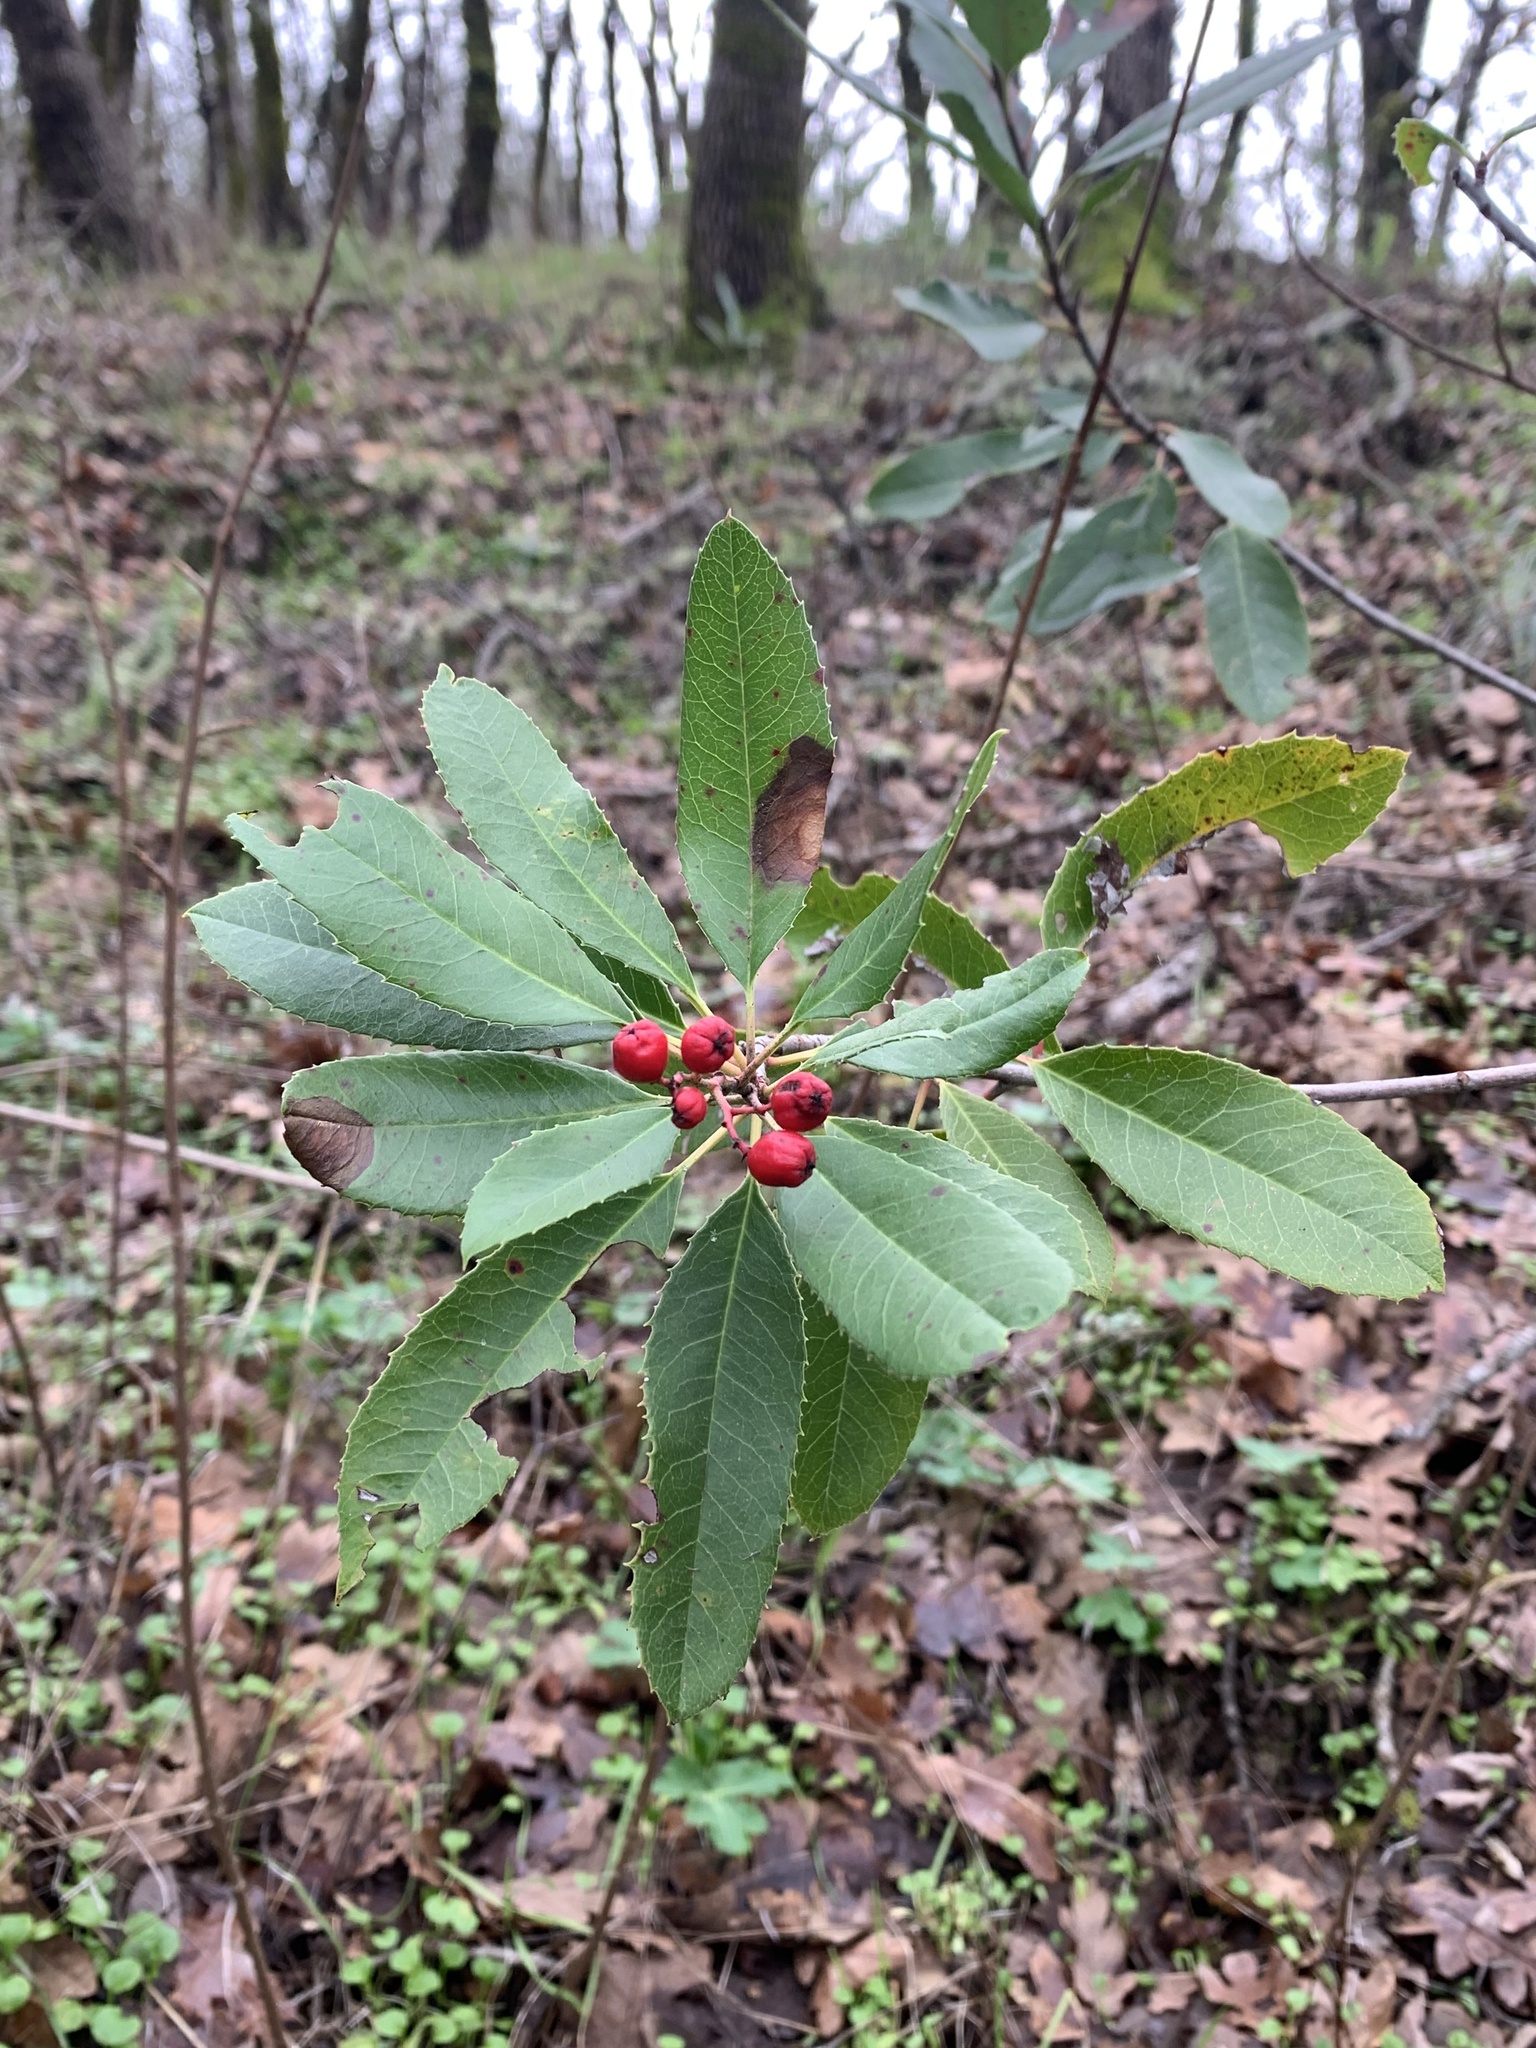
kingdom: Plantae
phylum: Tracheophyta
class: Magnoliopsida
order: Rosales
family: Rosaceae
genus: Heteromeles
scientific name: Heteromeles arbutifolia
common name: California-holly
